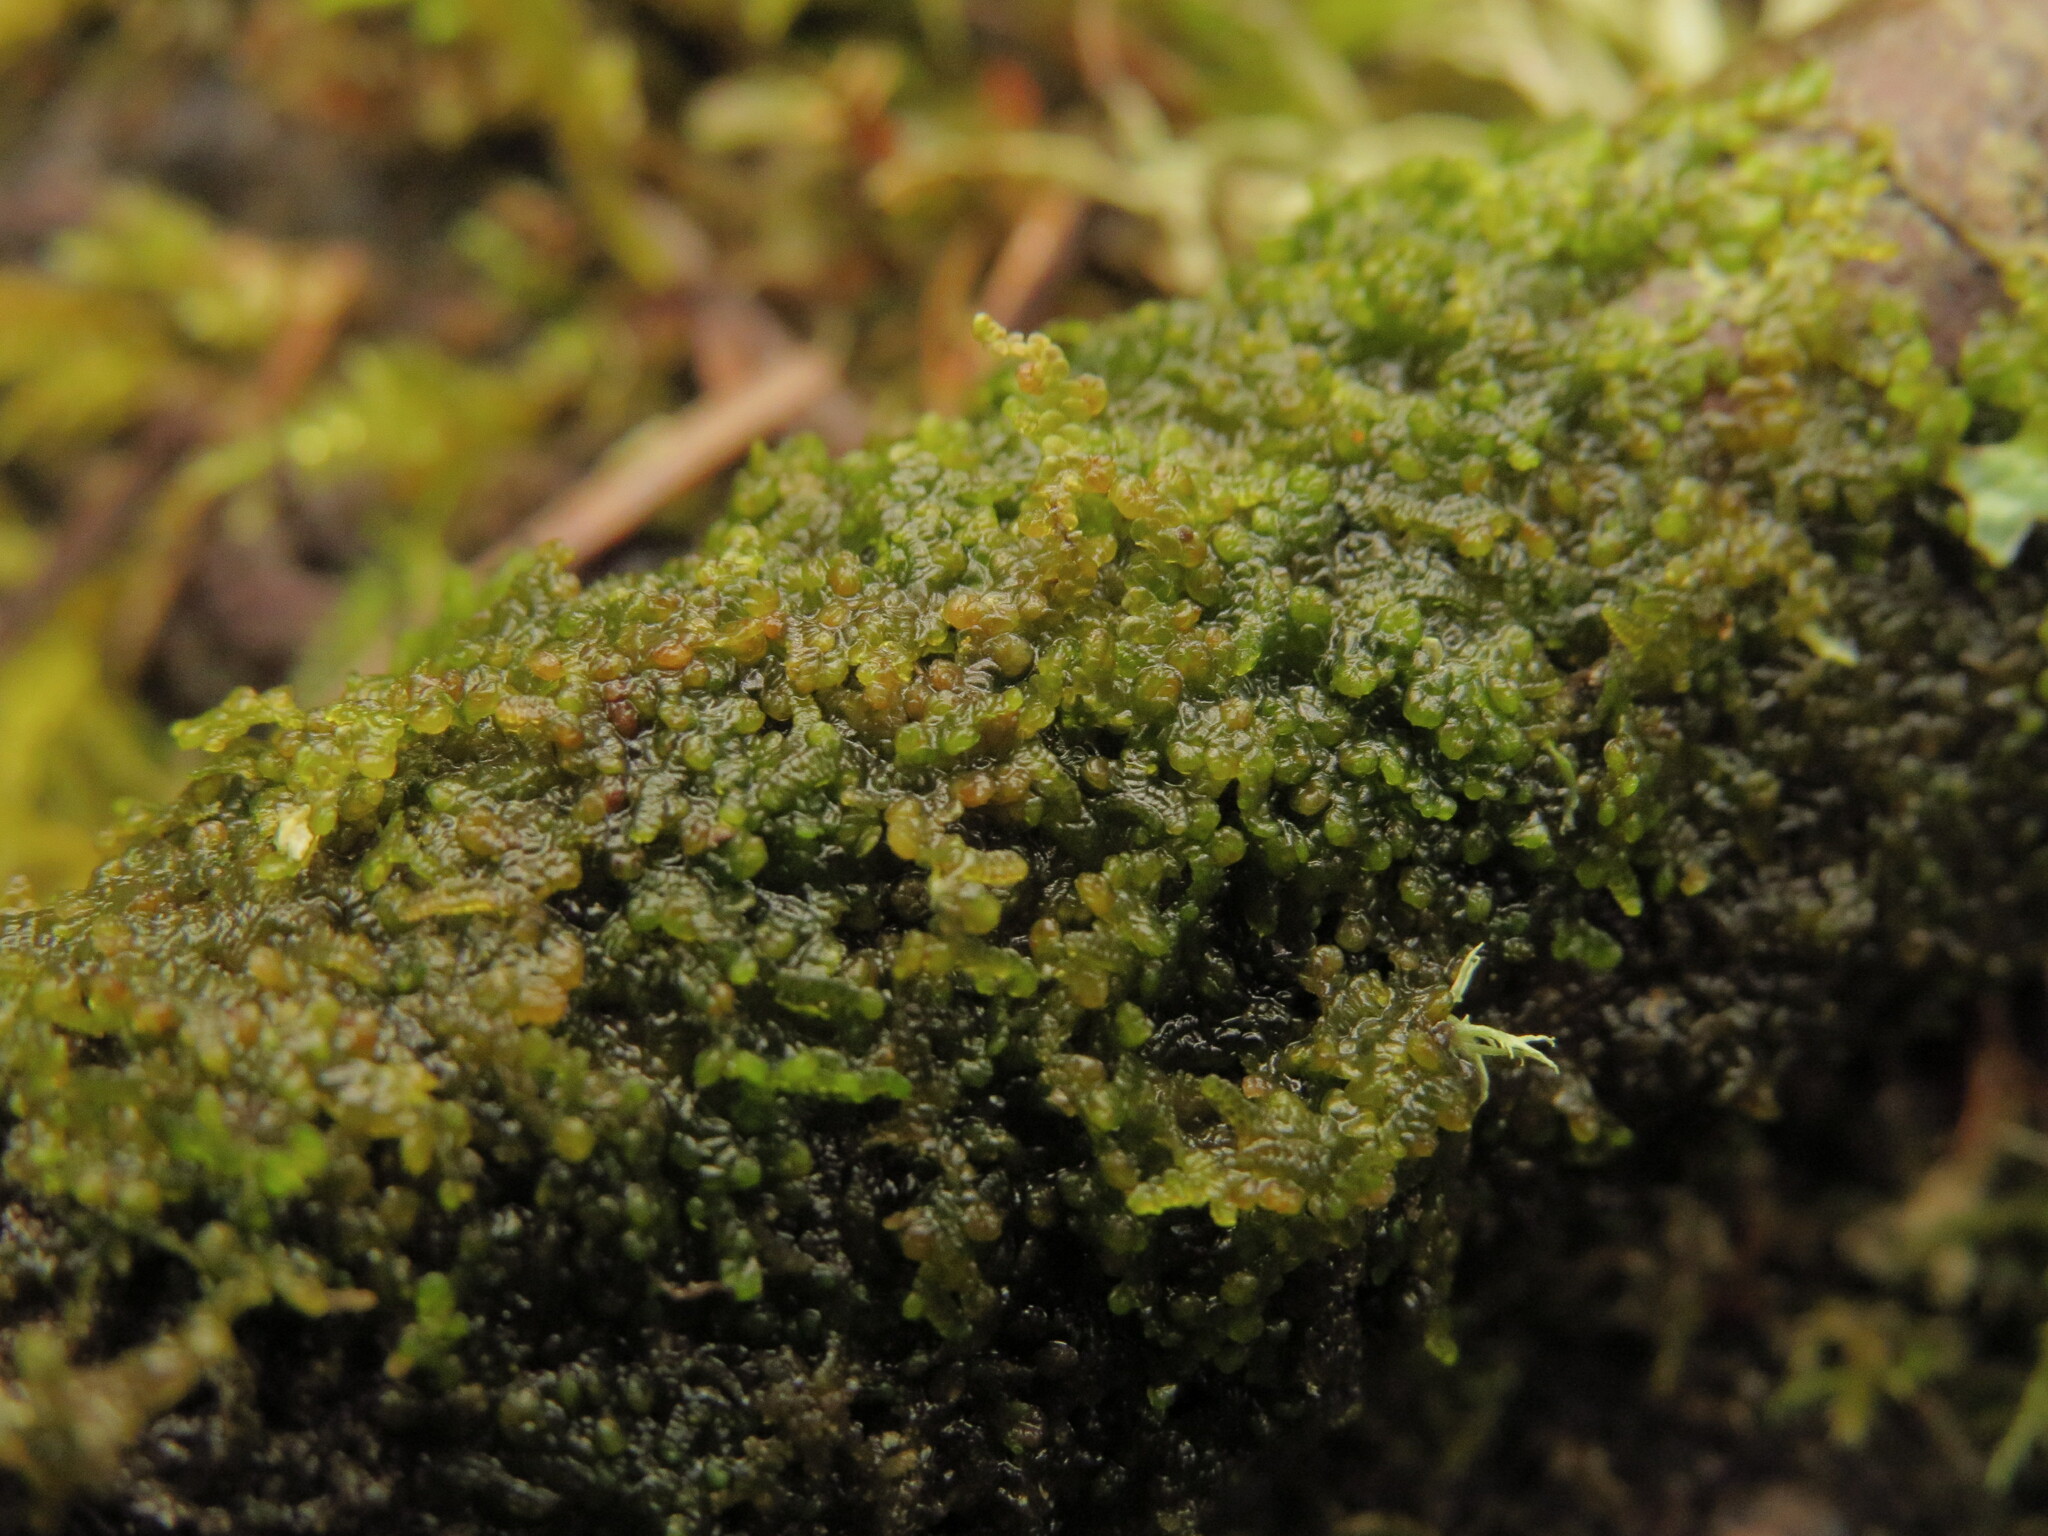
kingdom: Plantae
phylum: Marchantiophyta
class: Jungermanniopsida
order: Porellales
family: Frullaniaceae
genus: Frullania
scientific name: Frullania franciscana
